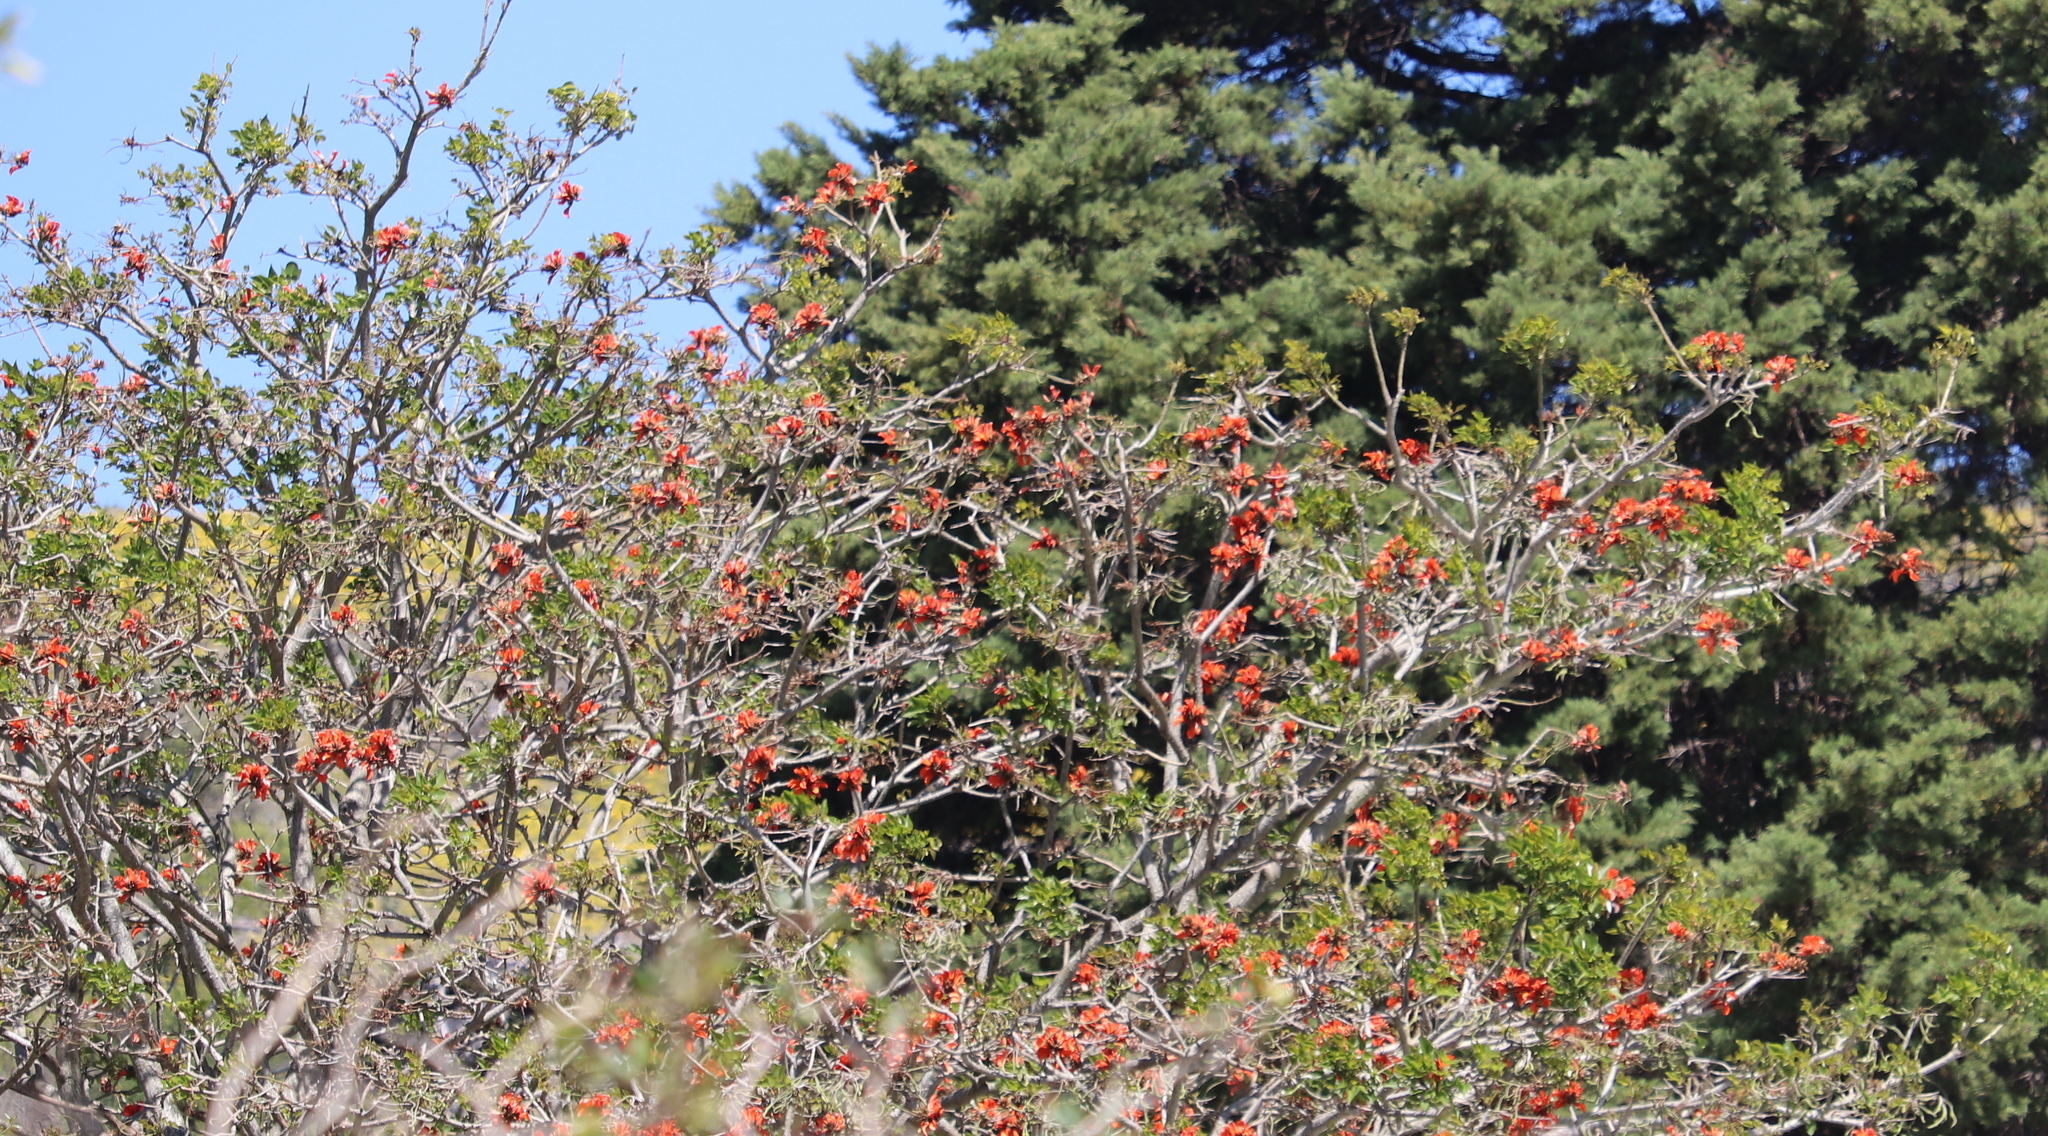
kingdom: Plantae
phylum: Tracheophyta
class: Magnoliopsida
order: Fabales
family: Fabaceae
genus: Erythrina
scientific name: Erythrina caffra
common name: Coast coral tree
